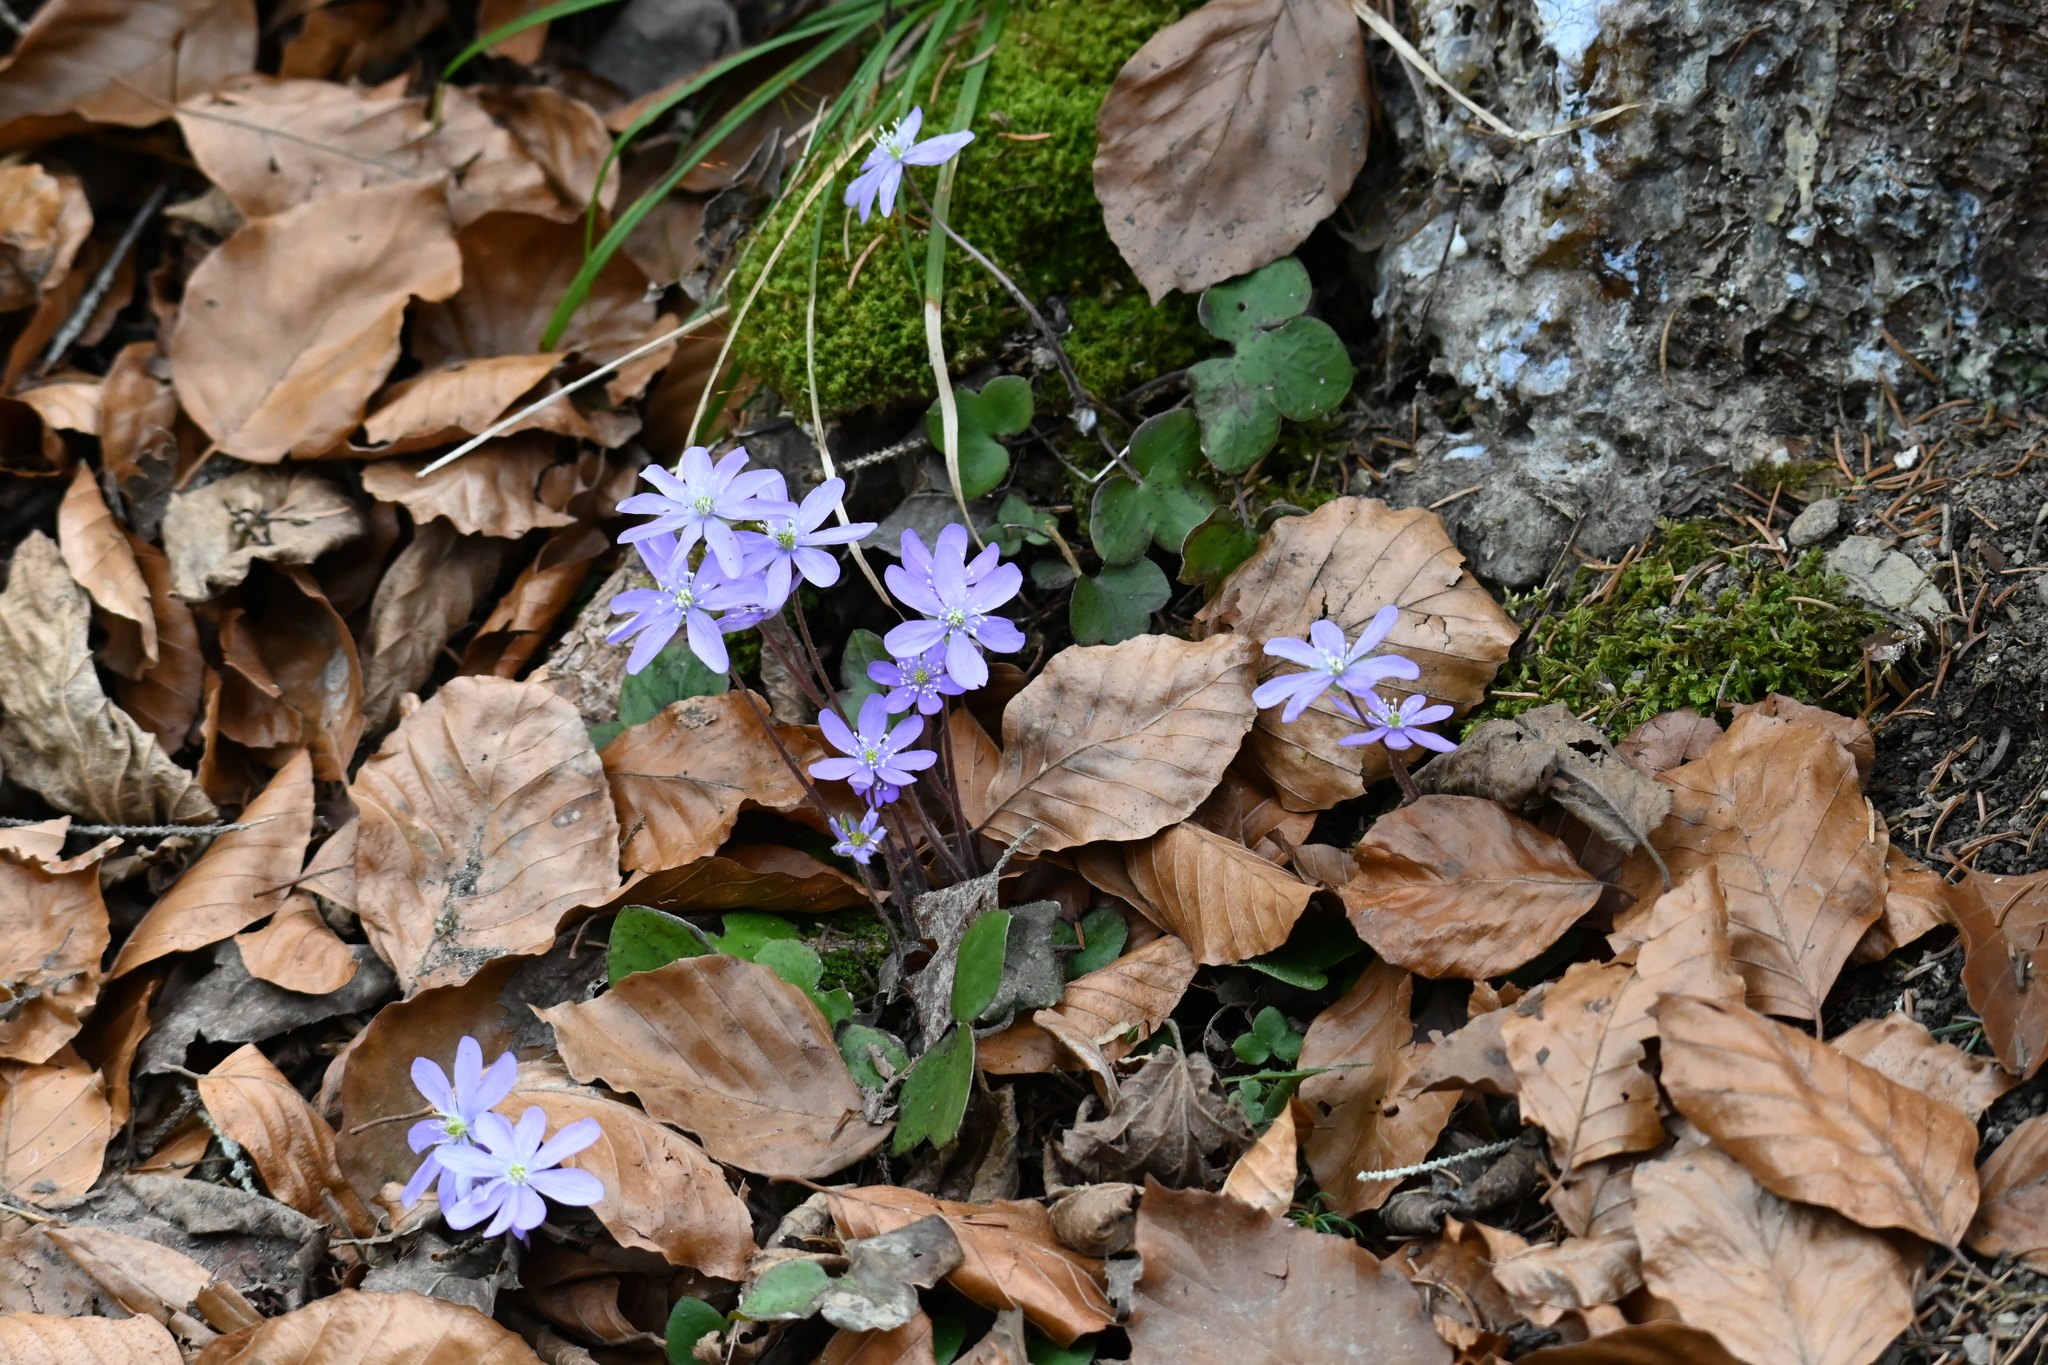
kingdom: Plantae
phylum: Tracheophyta
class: Magnoliopsida
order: Ranunculales
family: Ranunculaceae
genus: Hepatica
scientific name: Hepatica nobilis
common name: Liverleaf
